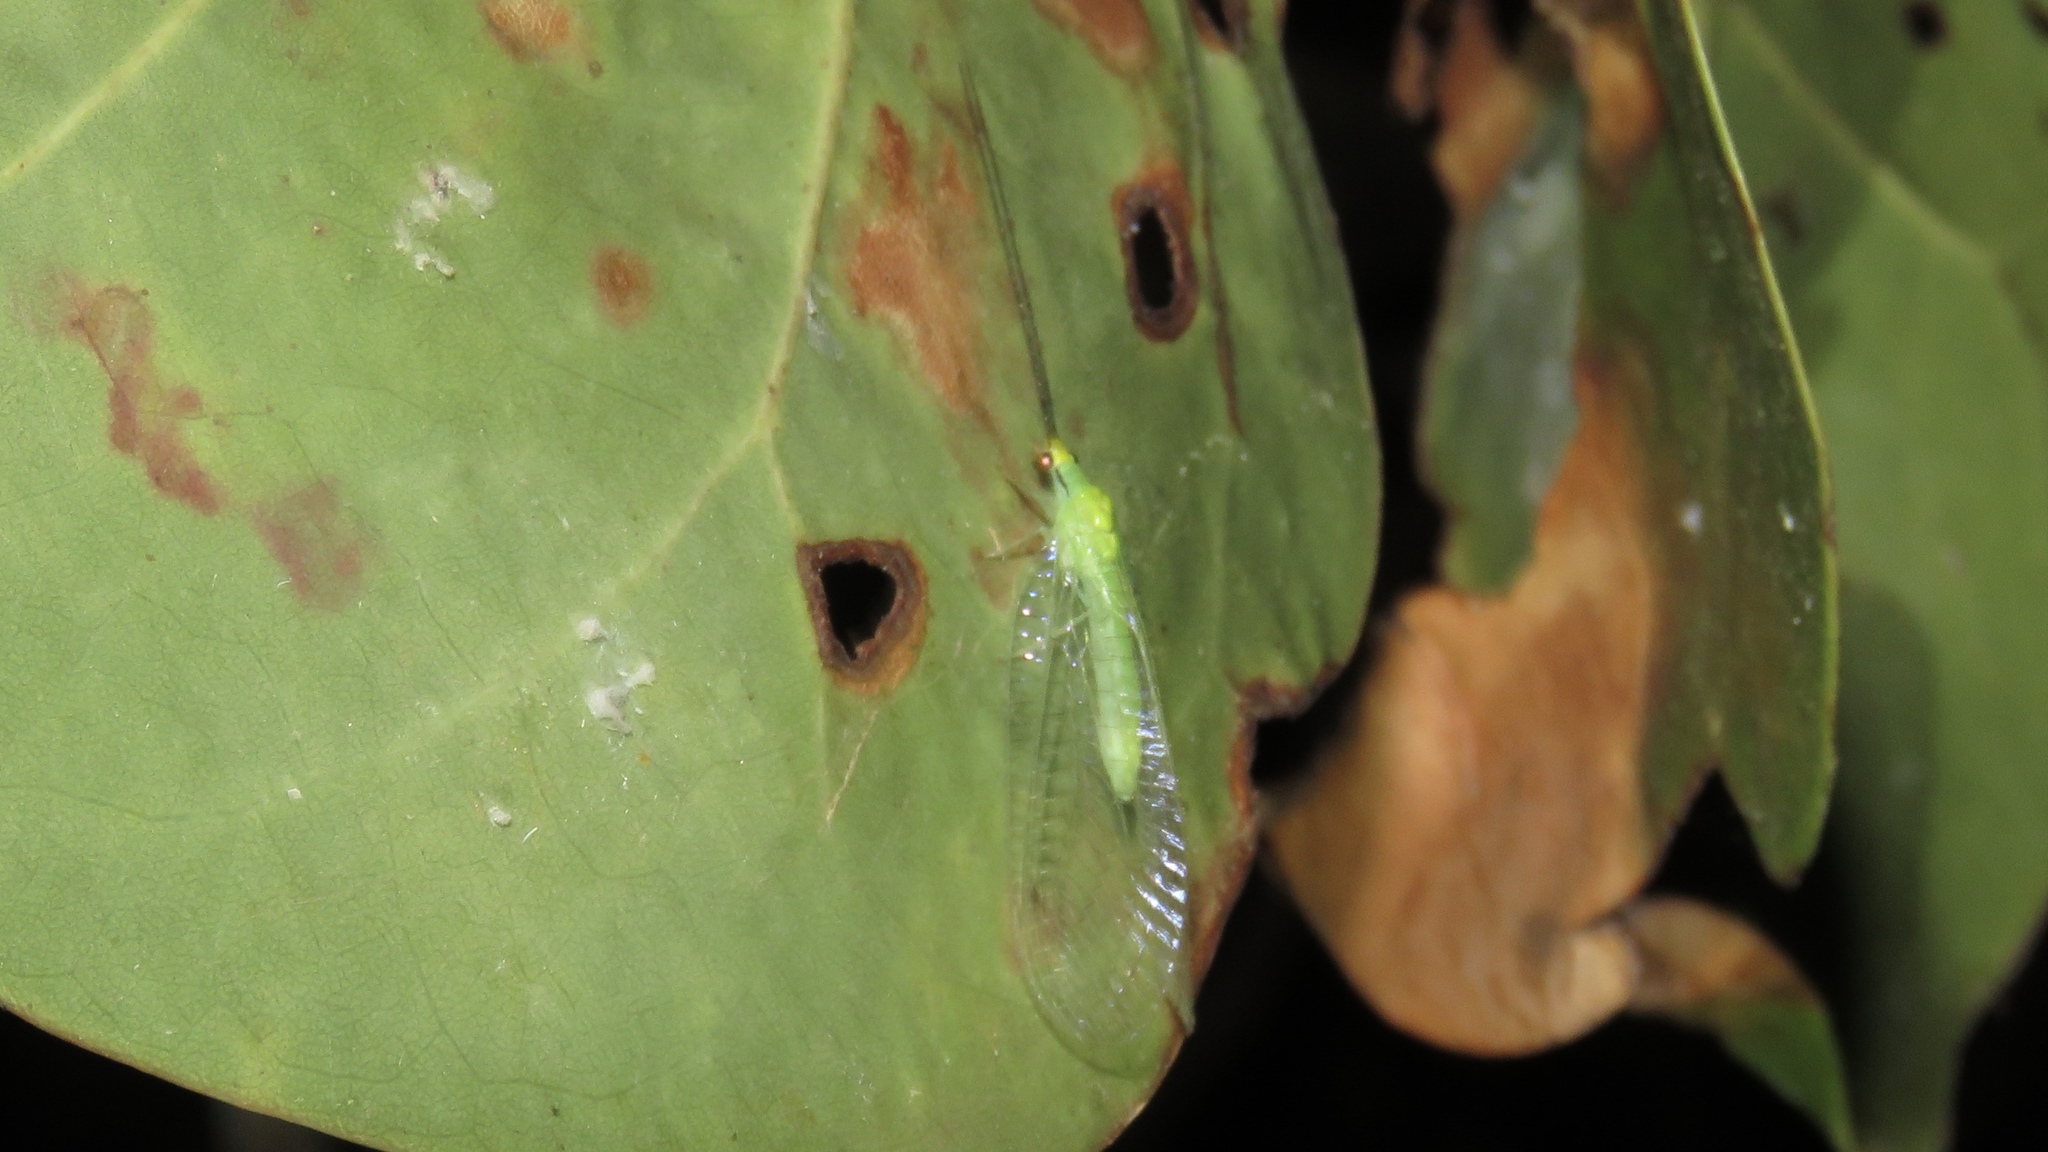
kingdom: Animalia
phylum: Arthropoda
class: Insecta
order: Neuroptera
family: Chrysopidae
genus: Leucochrysa
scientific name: Leucochrysa pavida
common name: Lichen-carrying green lacewing
